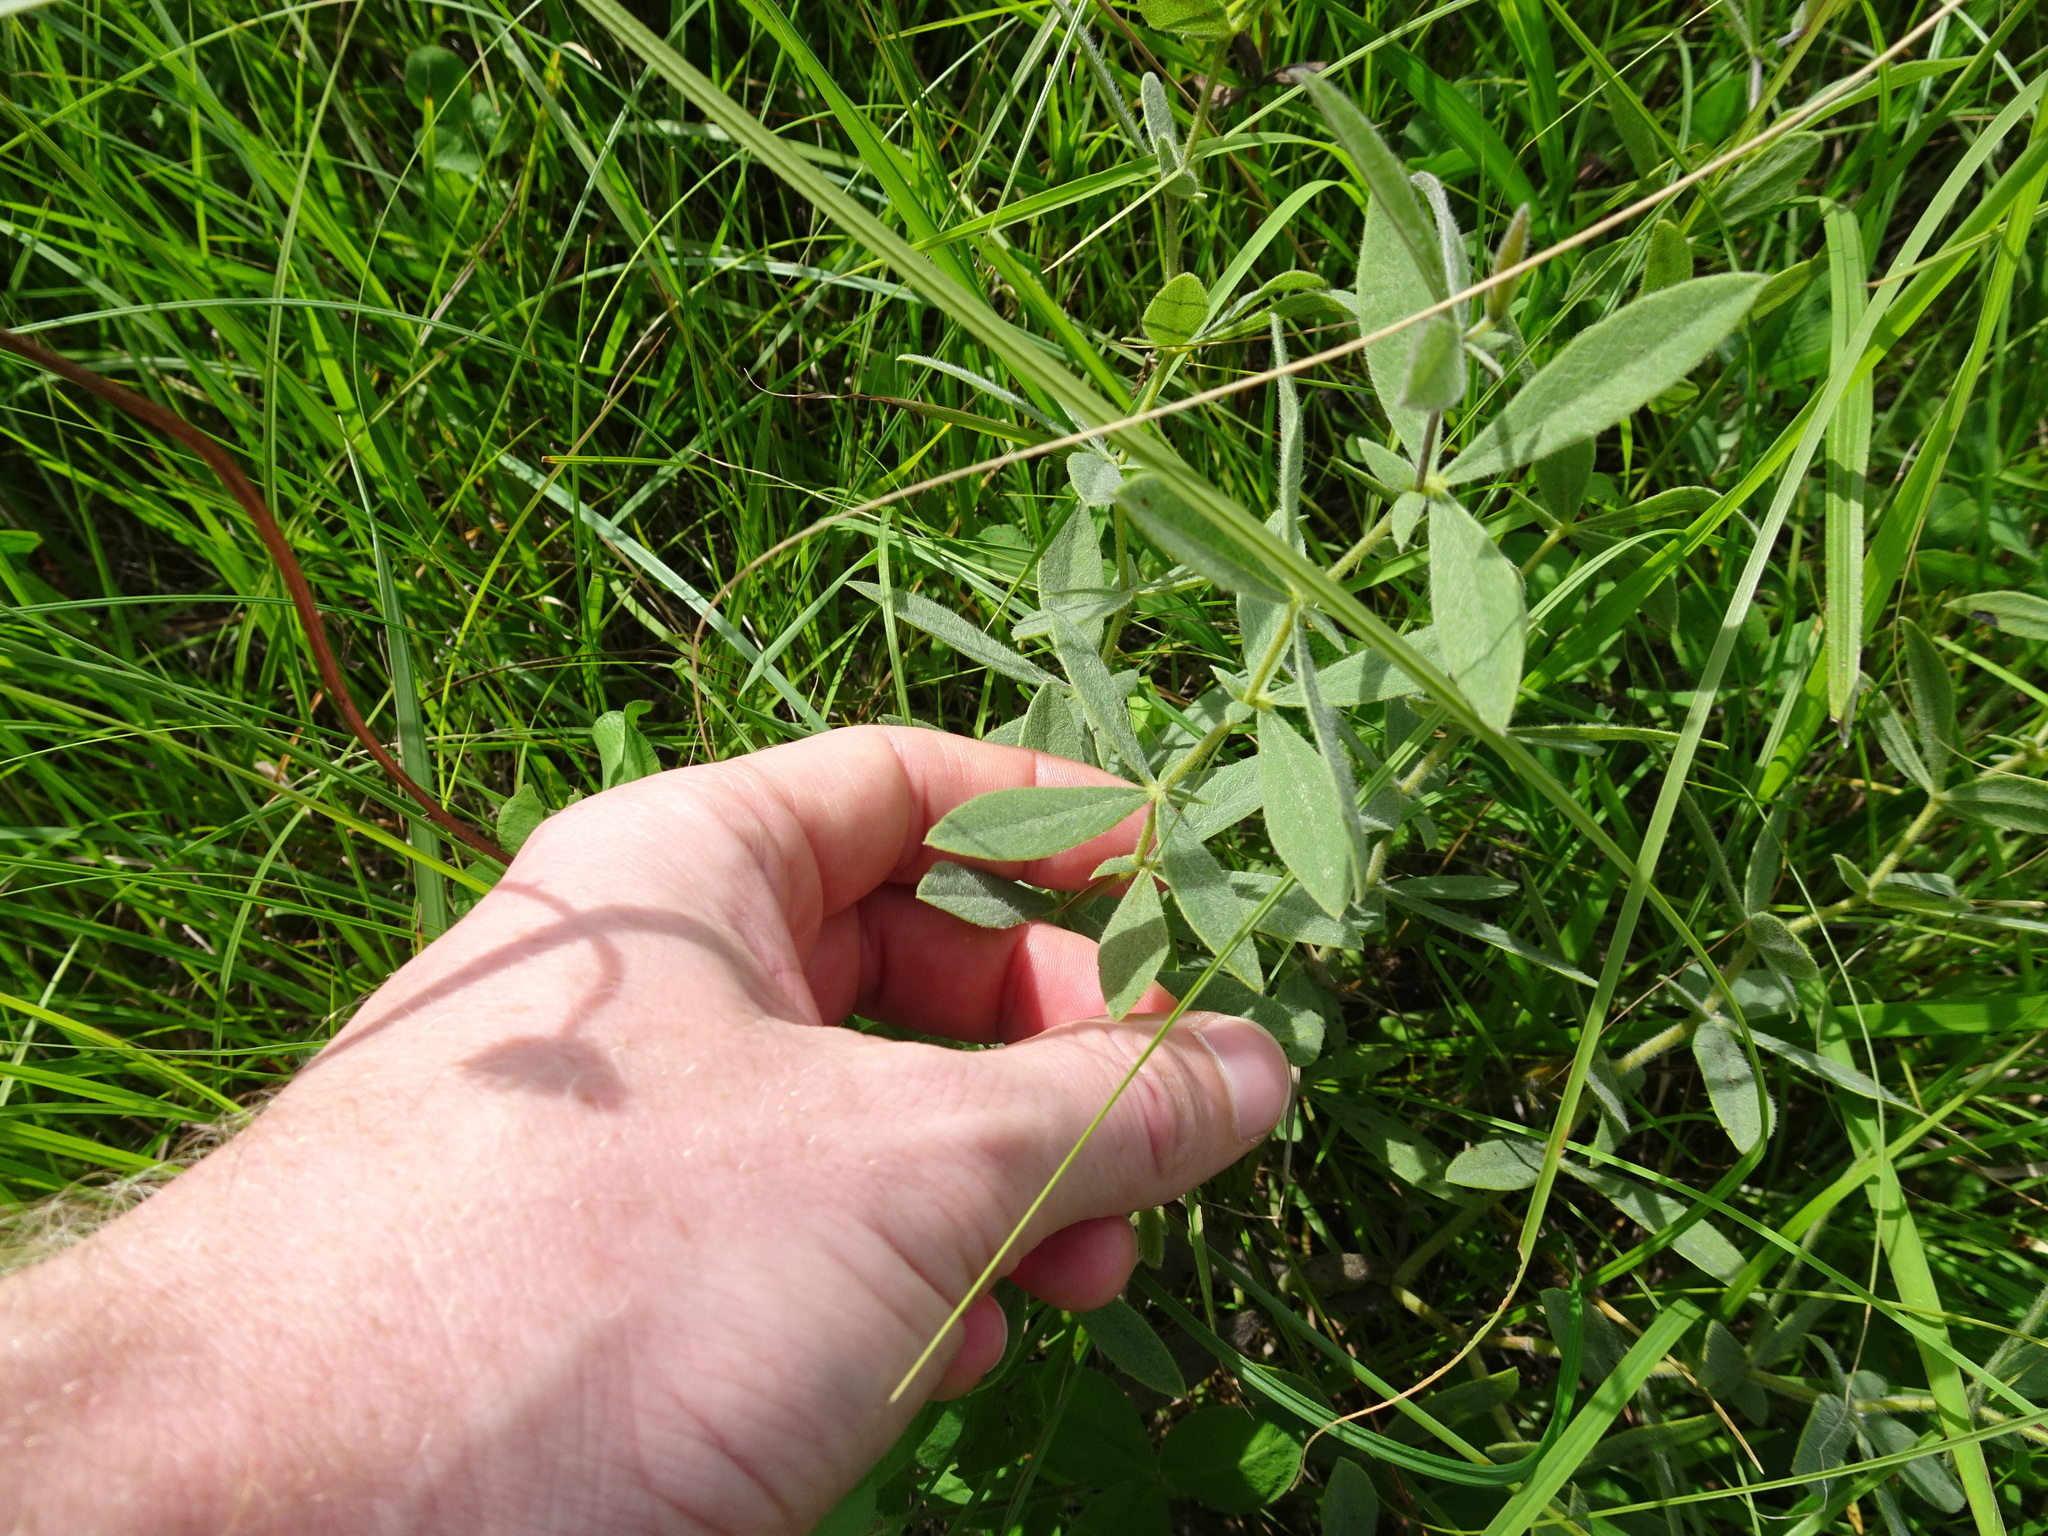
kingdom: Plantae
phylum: Tracheophyta
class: Magnoliopsida
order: Fabales
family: Fabaceae
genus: Baptisia
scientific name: Baptisia bracteata
